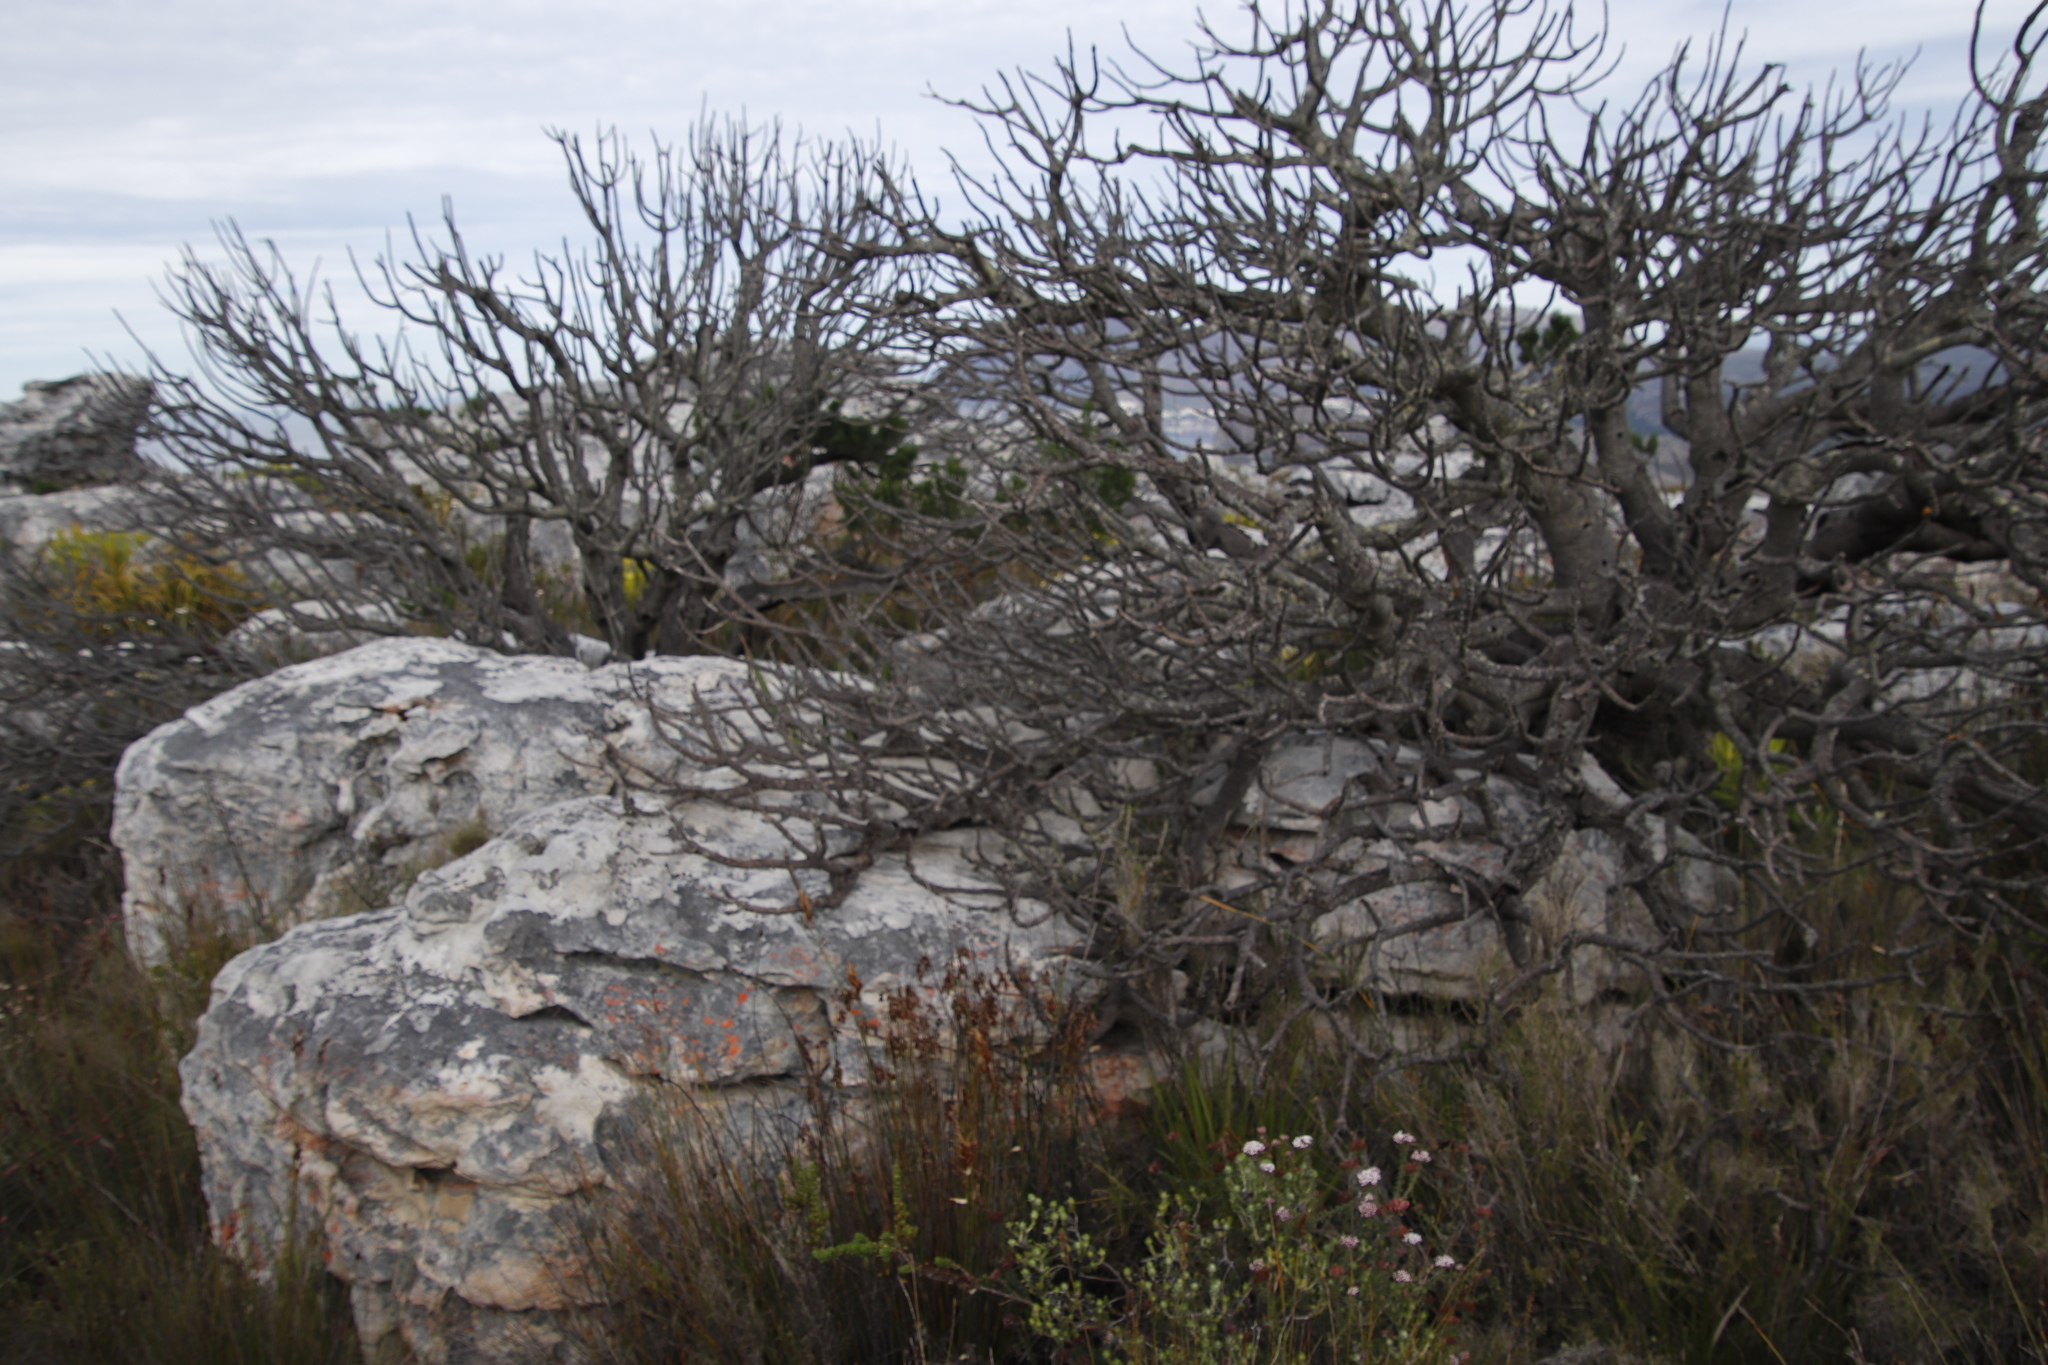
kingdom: Plantae
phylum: Tracheophyta
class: Magnoliopsida
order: Proteales
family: Proteaceae
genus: Mimetes
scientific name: Mimetes fimbriifolius
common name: Fringed bottlebrush
